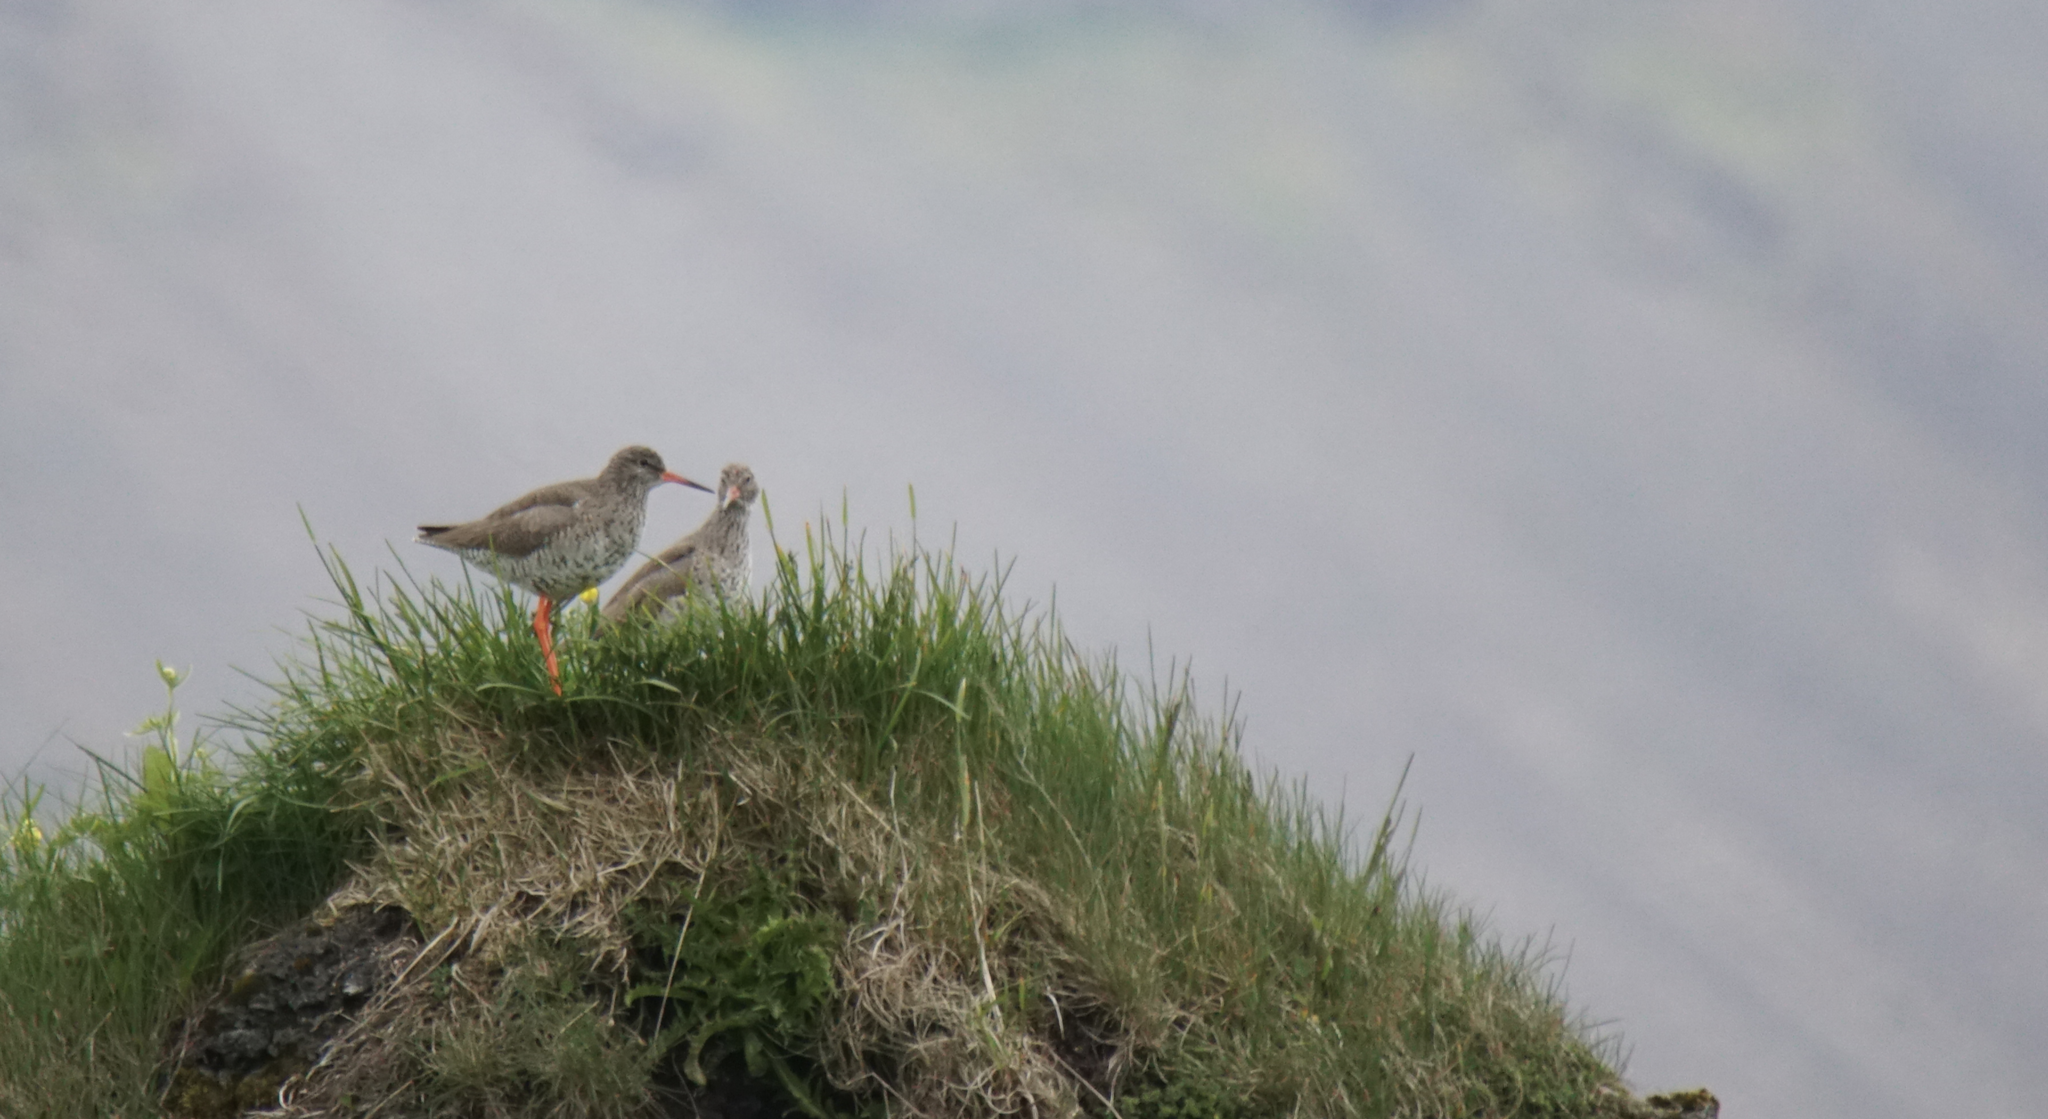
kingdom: Animalia
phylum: Chordata
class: Aves
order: Charadriiformes
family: Scolopacidae
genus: Tringa
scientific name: Tringa totanus
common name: Common redshank
